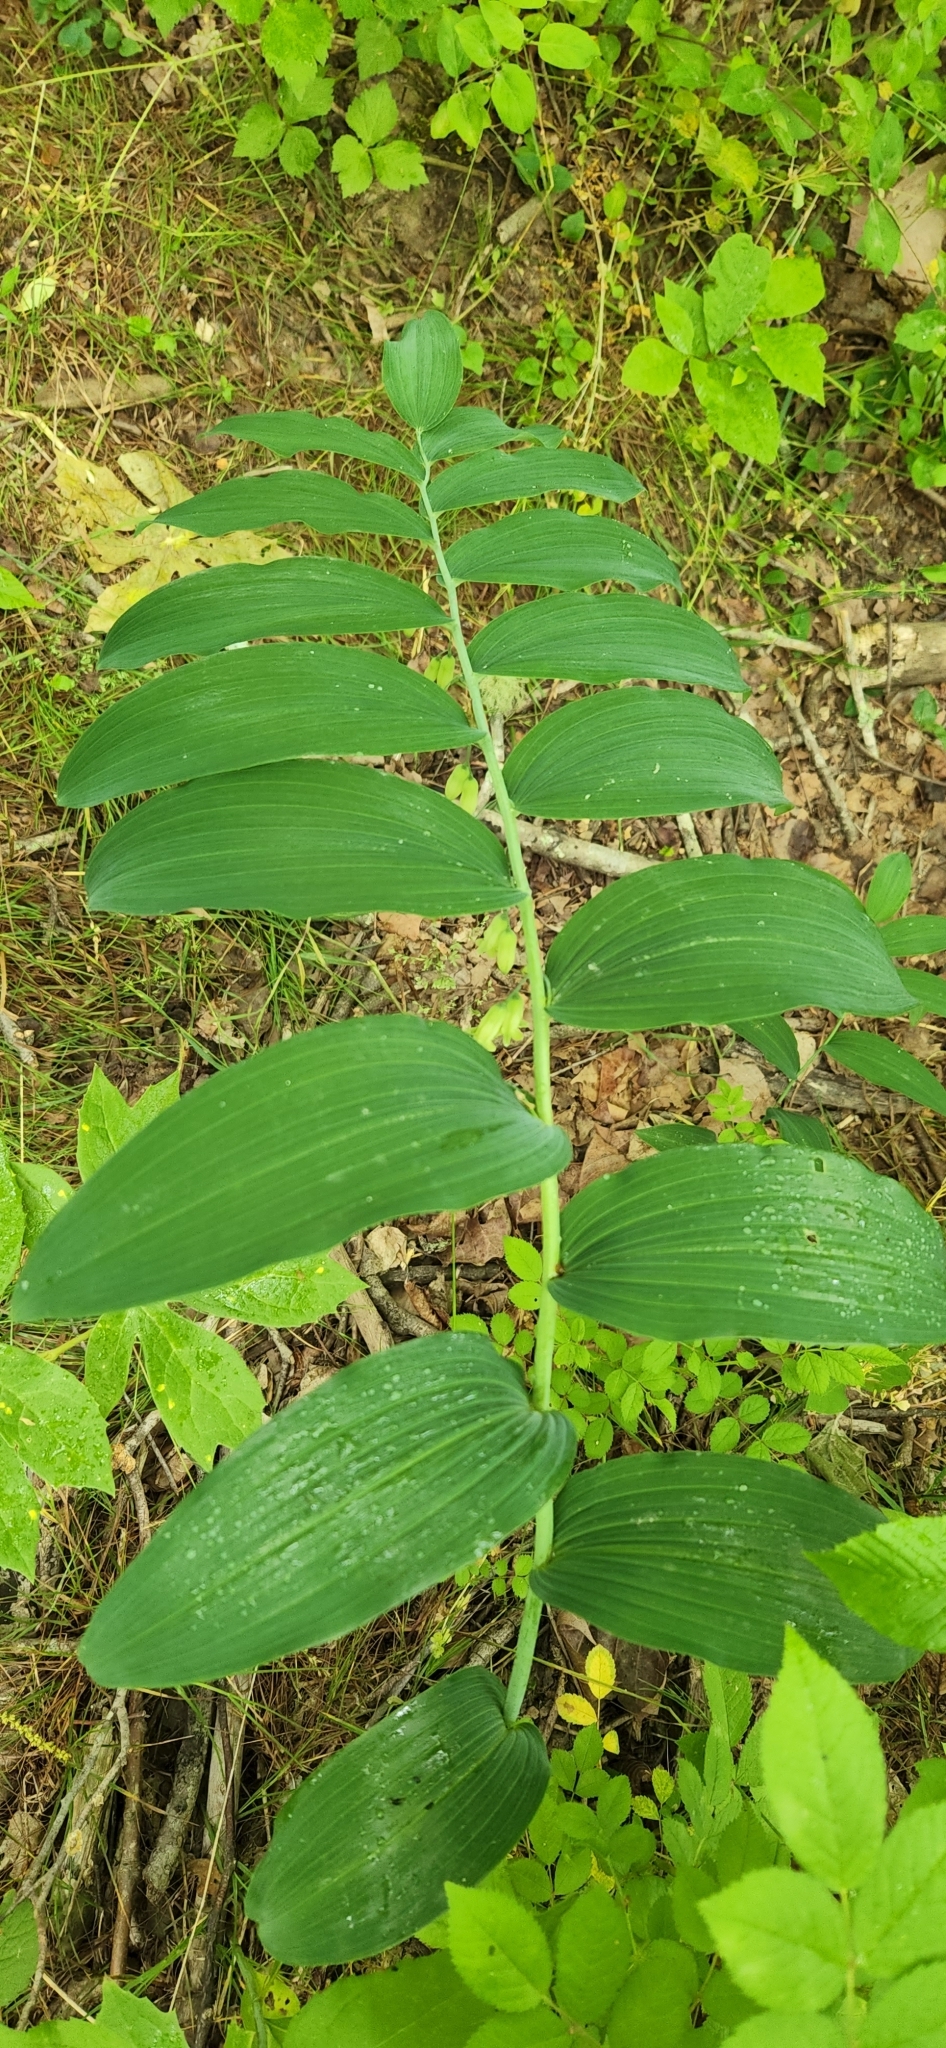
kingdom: Plantae
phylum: Tracheophyta
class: Liliopsida
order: Asparagales
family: Asparagaceae
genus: Polygonatum
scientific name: Polygonatum biflorum
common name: American solomon's-seal
